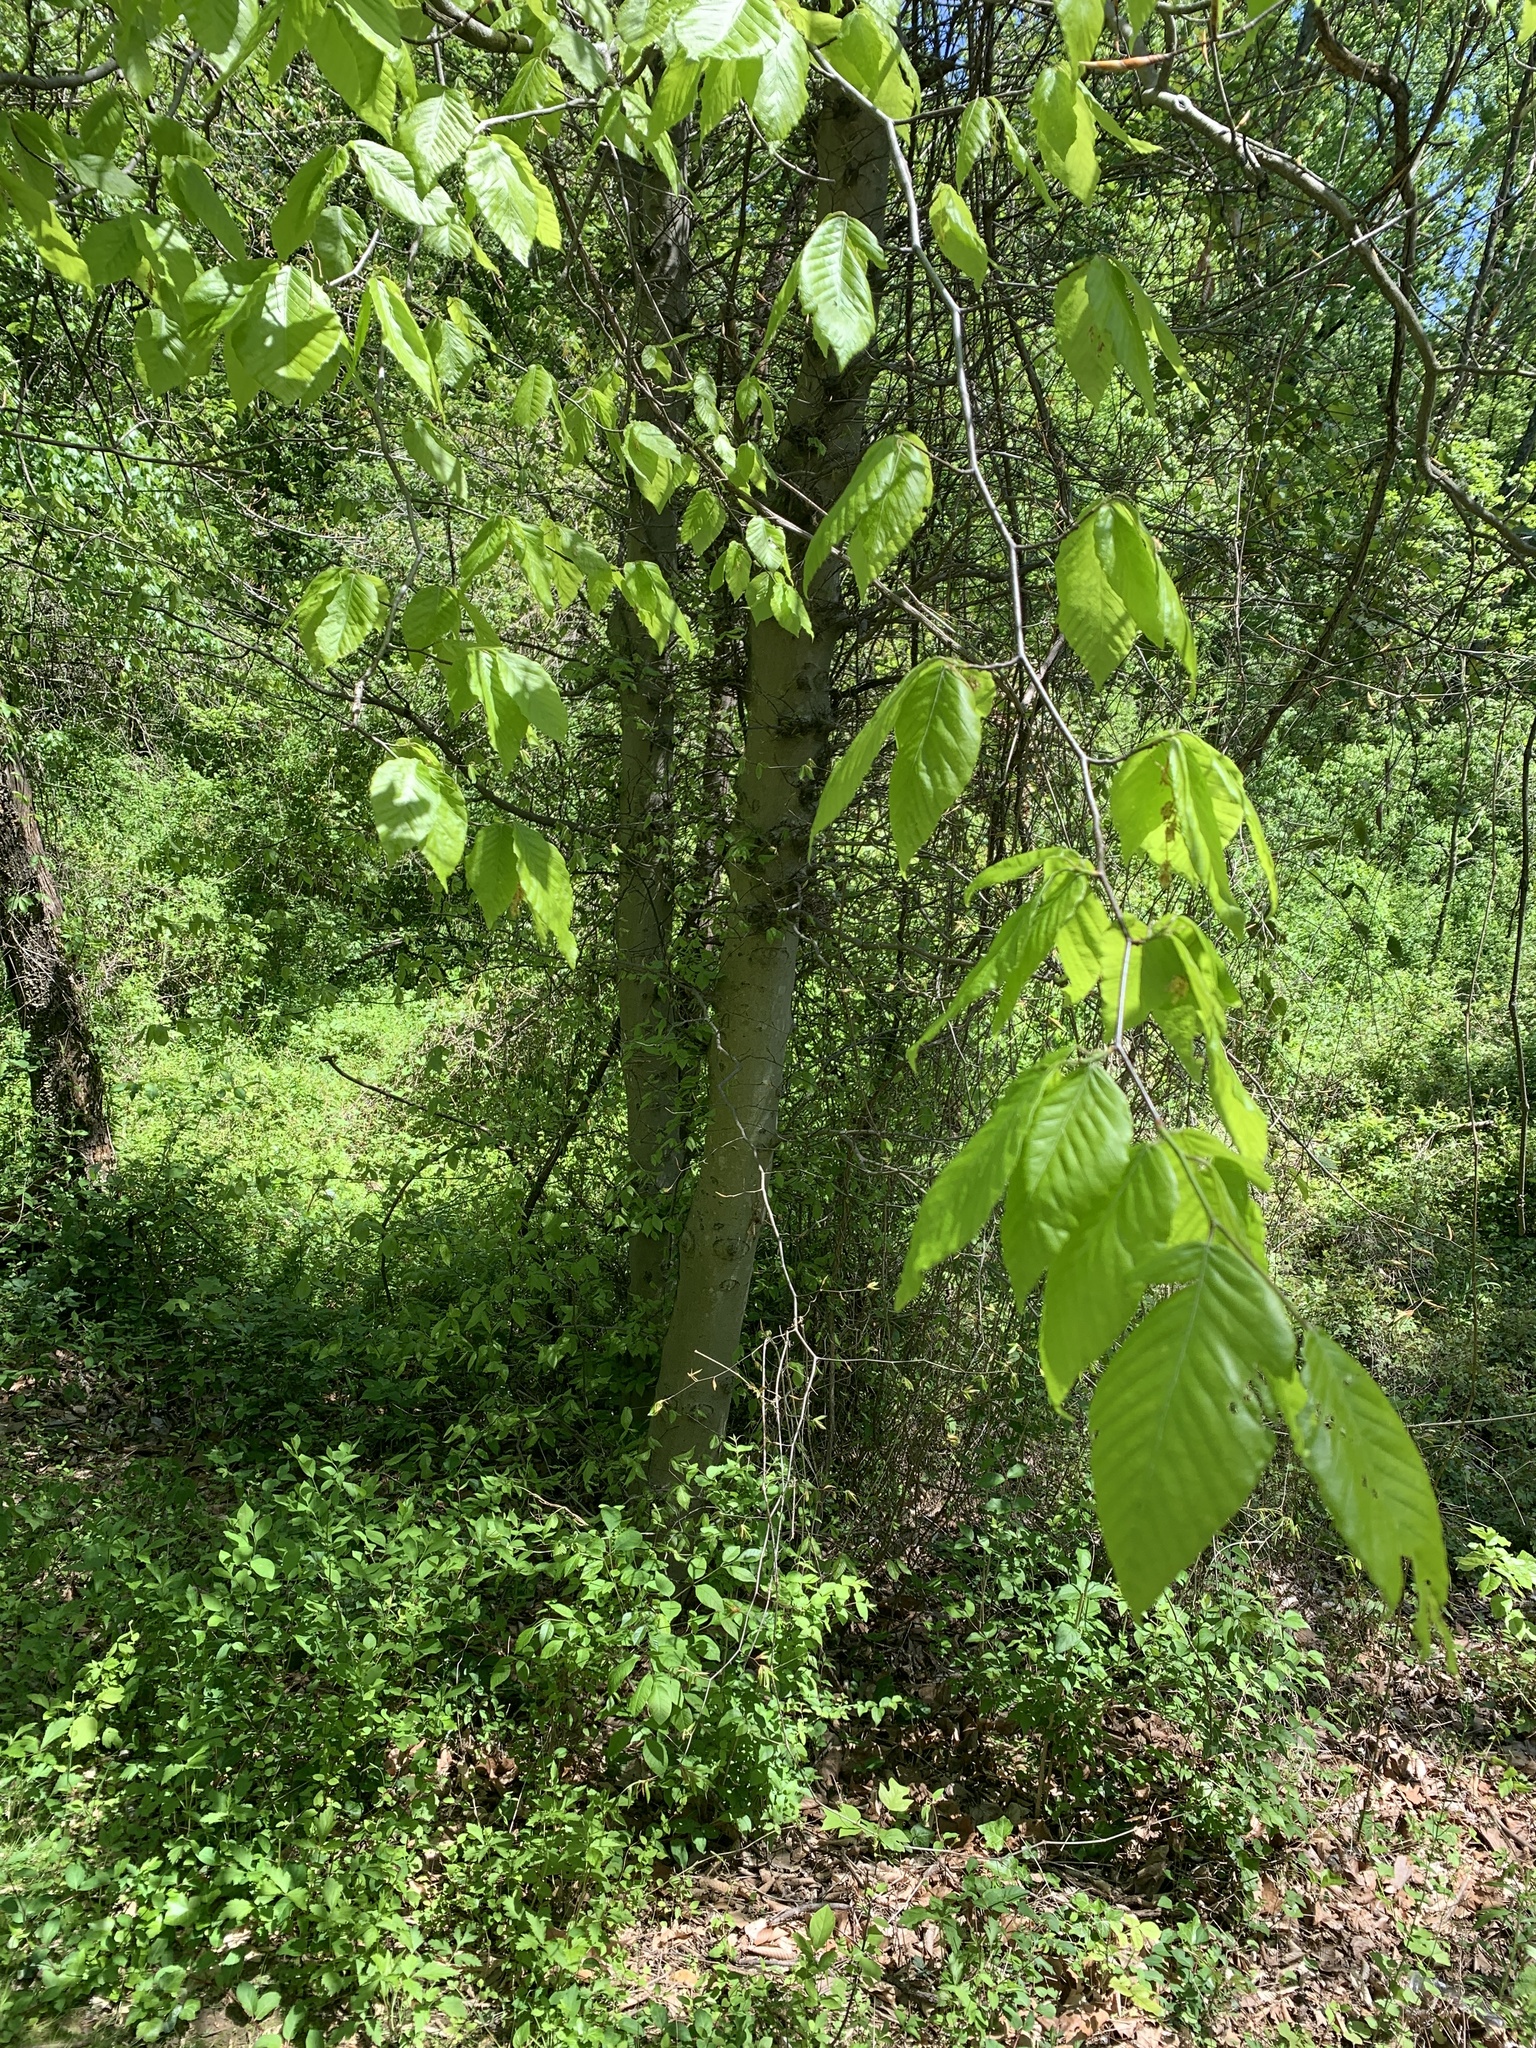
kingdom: Plantae
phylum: Tracheophyta
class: Magnoliopsida
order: Fagales
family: Fagaceae
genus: Fagus
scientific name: Fagus grandifolia
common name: American beech
